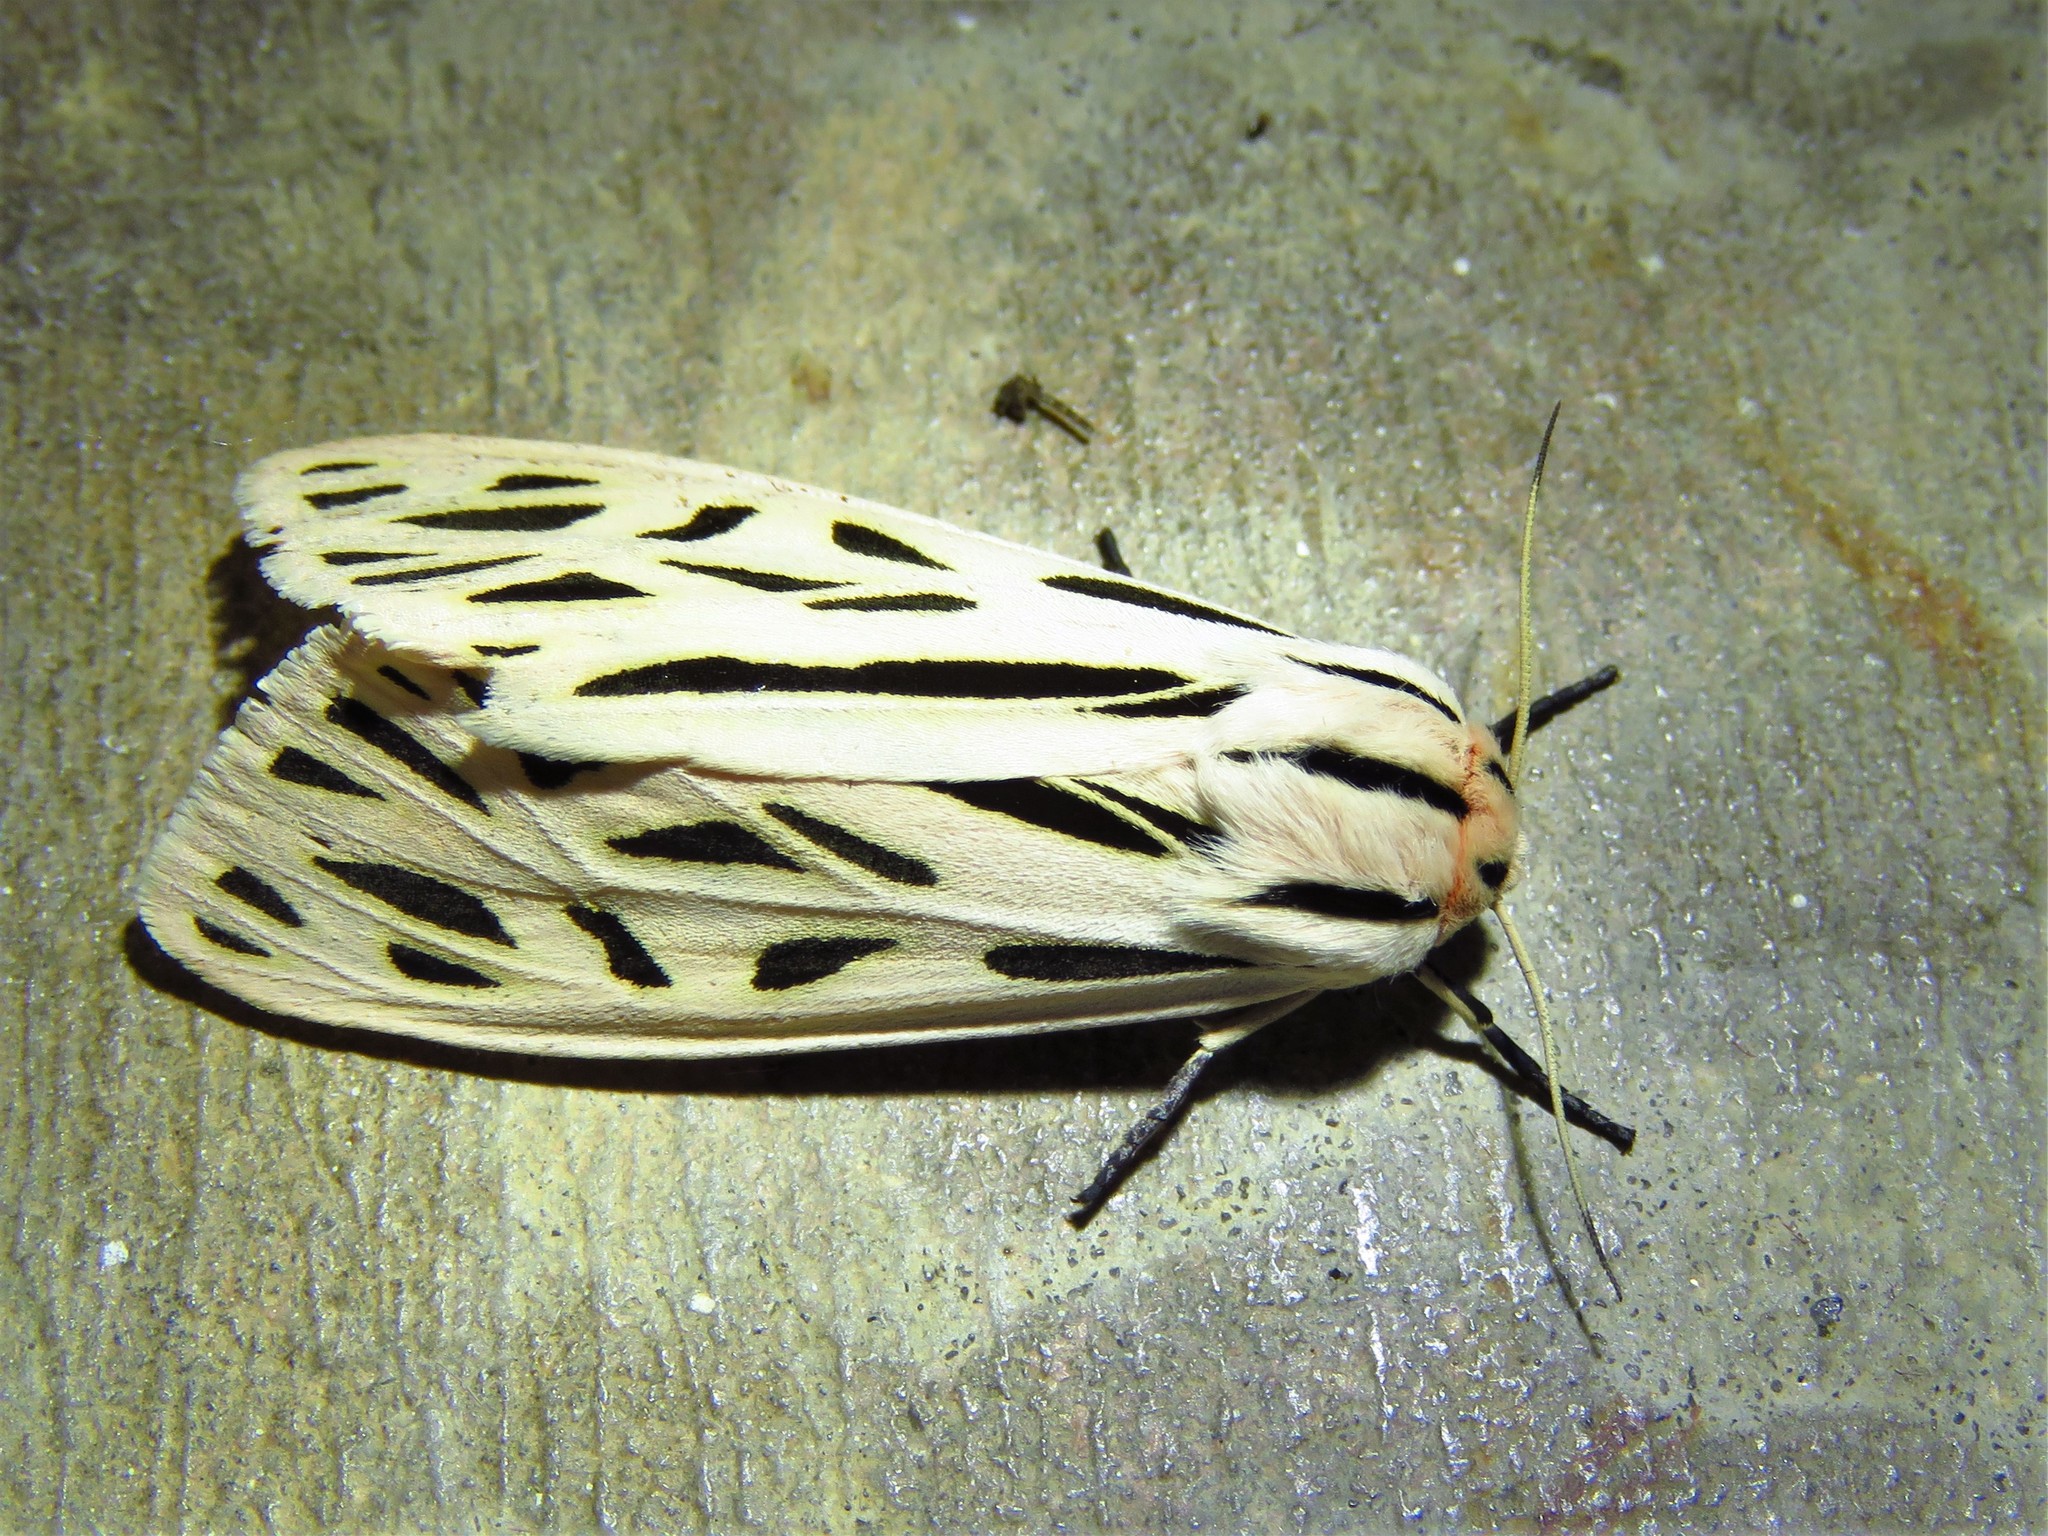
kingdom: Animalia
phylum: Arthropoda
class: Insecta
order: Lepidoptera
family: Erebidae
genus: Apantesis
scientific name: Apantesis arge
